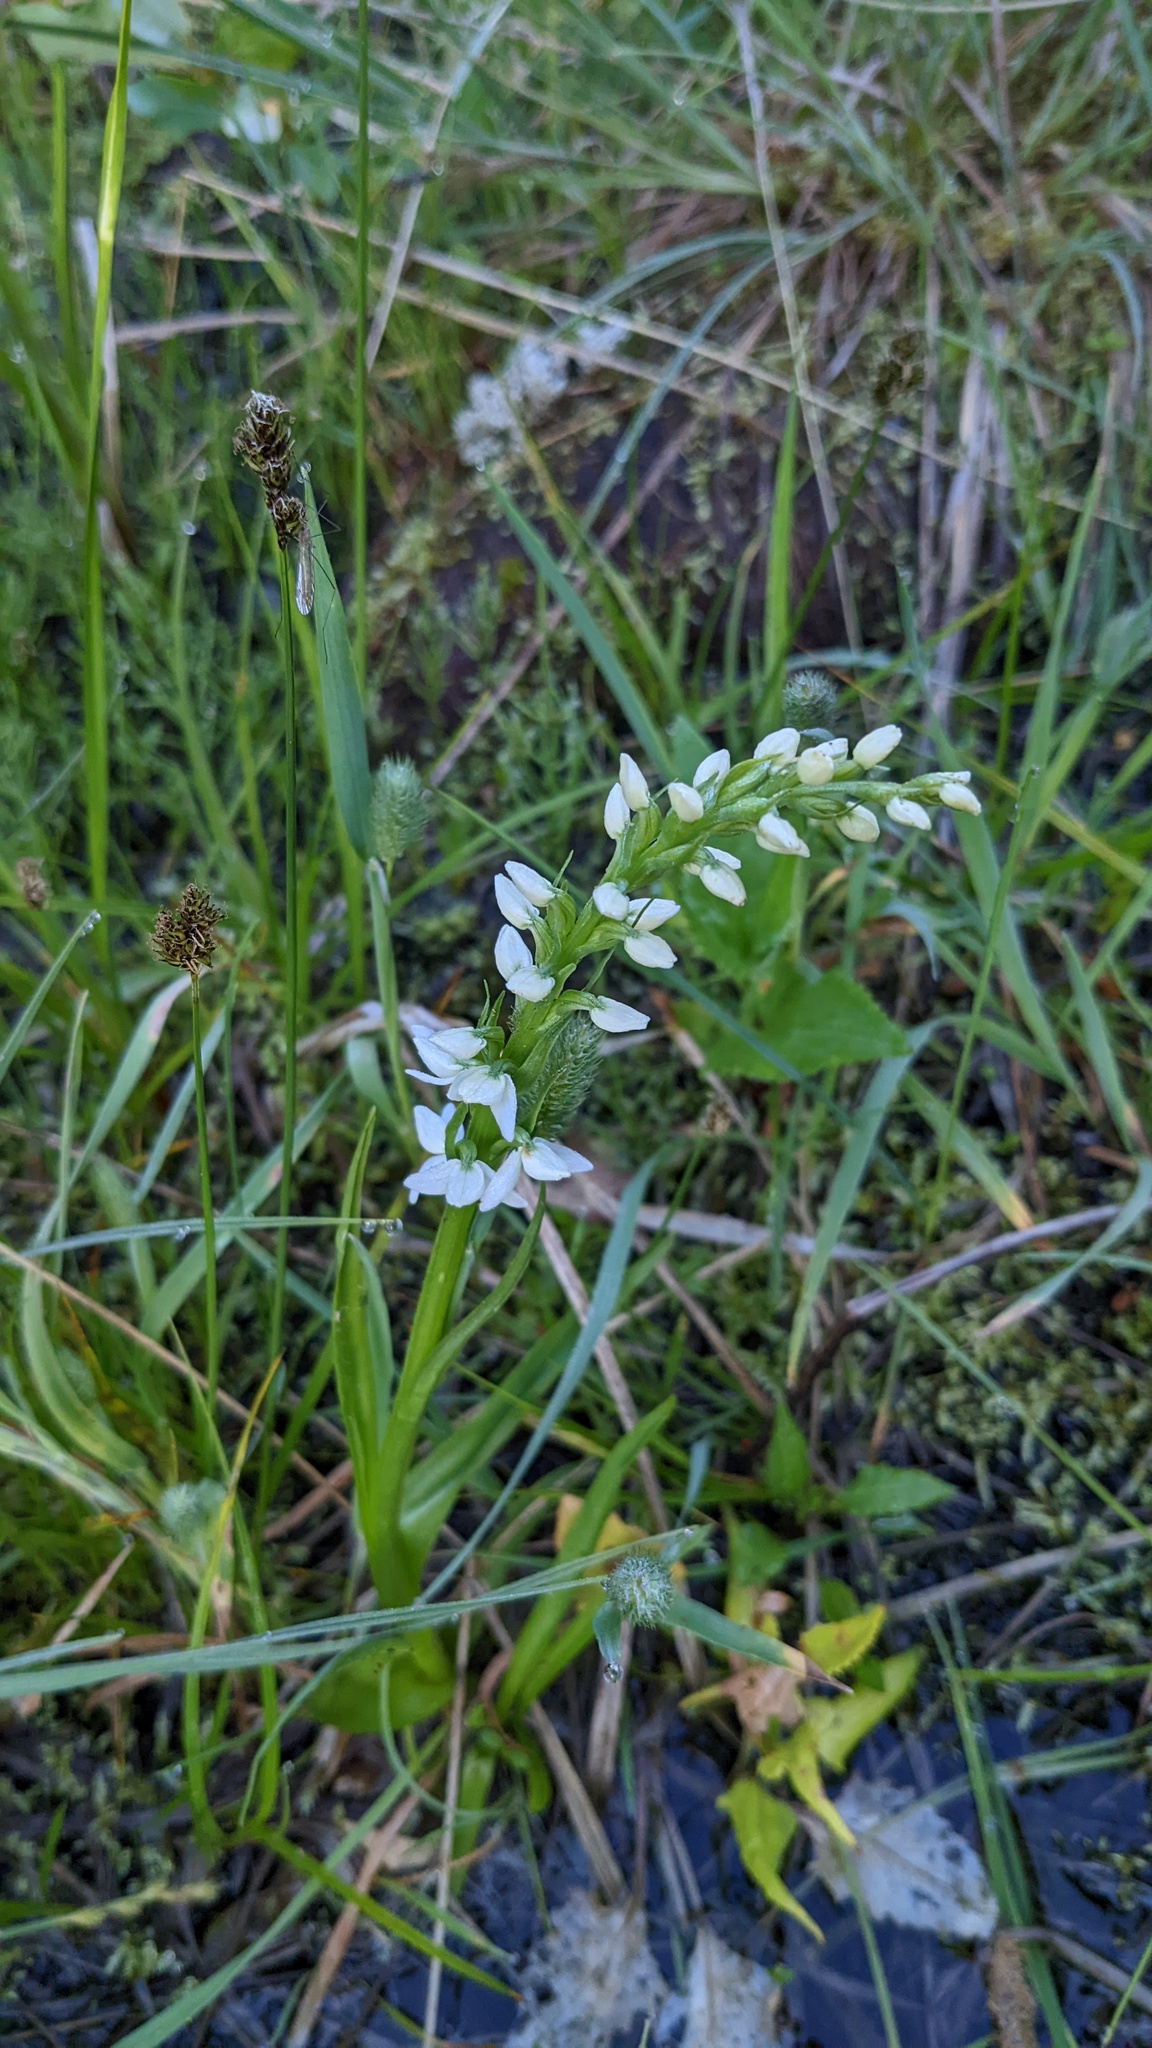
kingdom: Plantae
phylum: Tracheophyta
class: Liliopsida
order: Asparagales
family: Orchidaceae
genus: Platanthera
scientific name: Platanthera dilatata
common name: Bog candles
